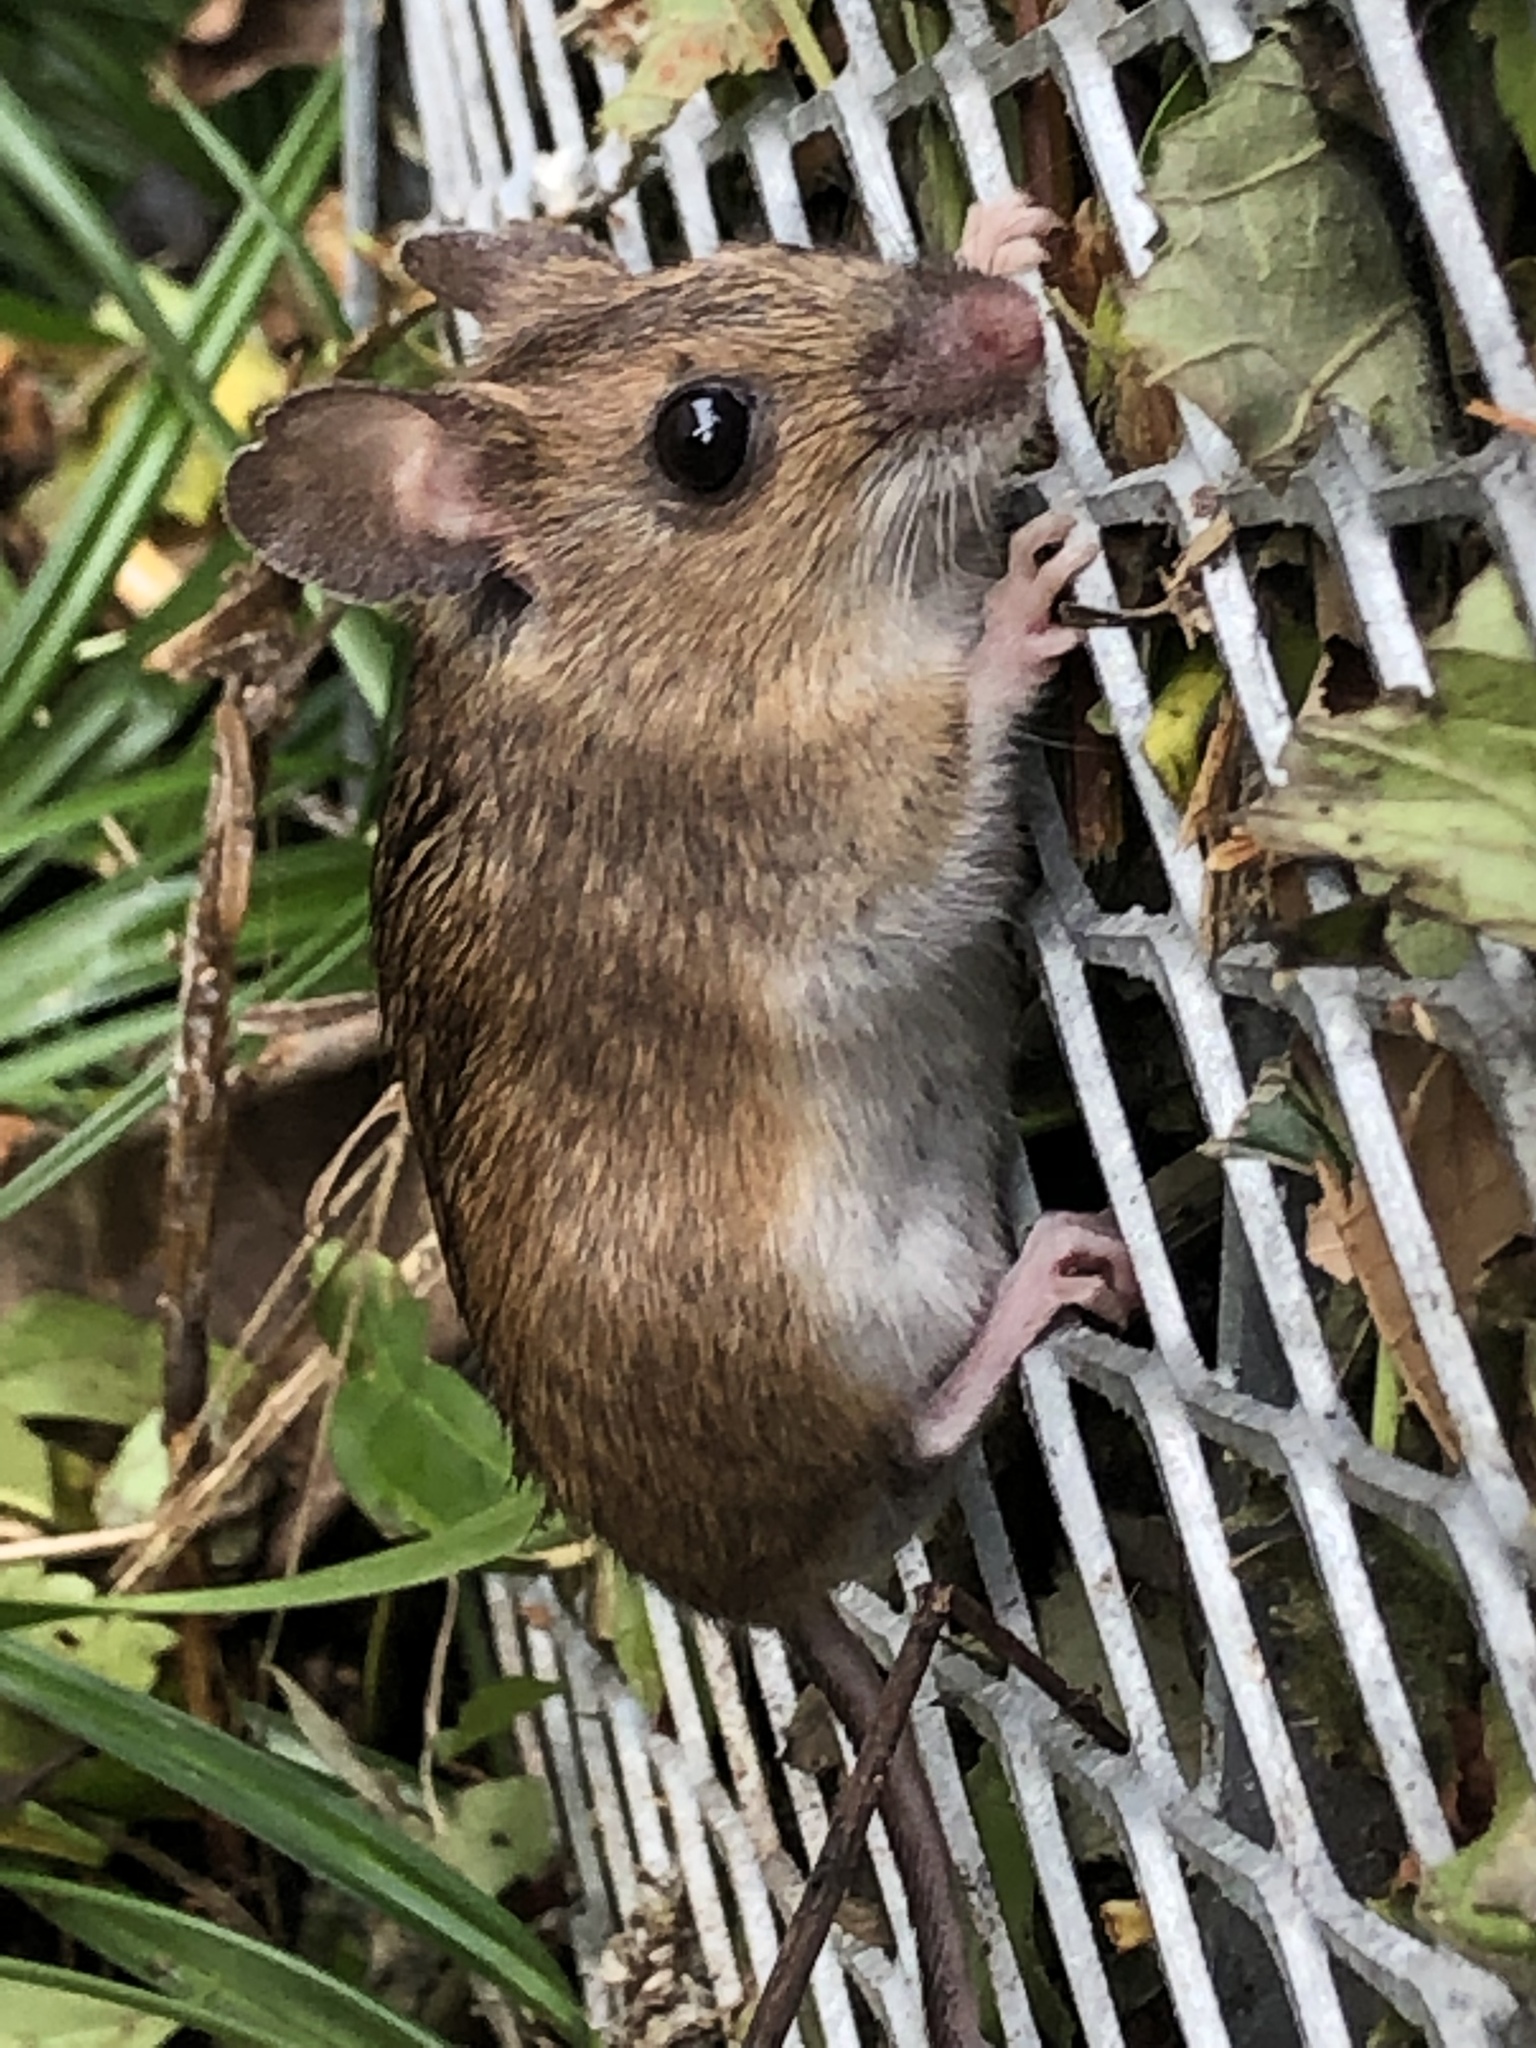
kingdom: Animalia
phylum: Chordata
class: Mammalia
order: Rodentia
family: Muridae
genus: Apodemus
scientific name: Apodemus flavicollis
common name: Yellow-necked field mouse
